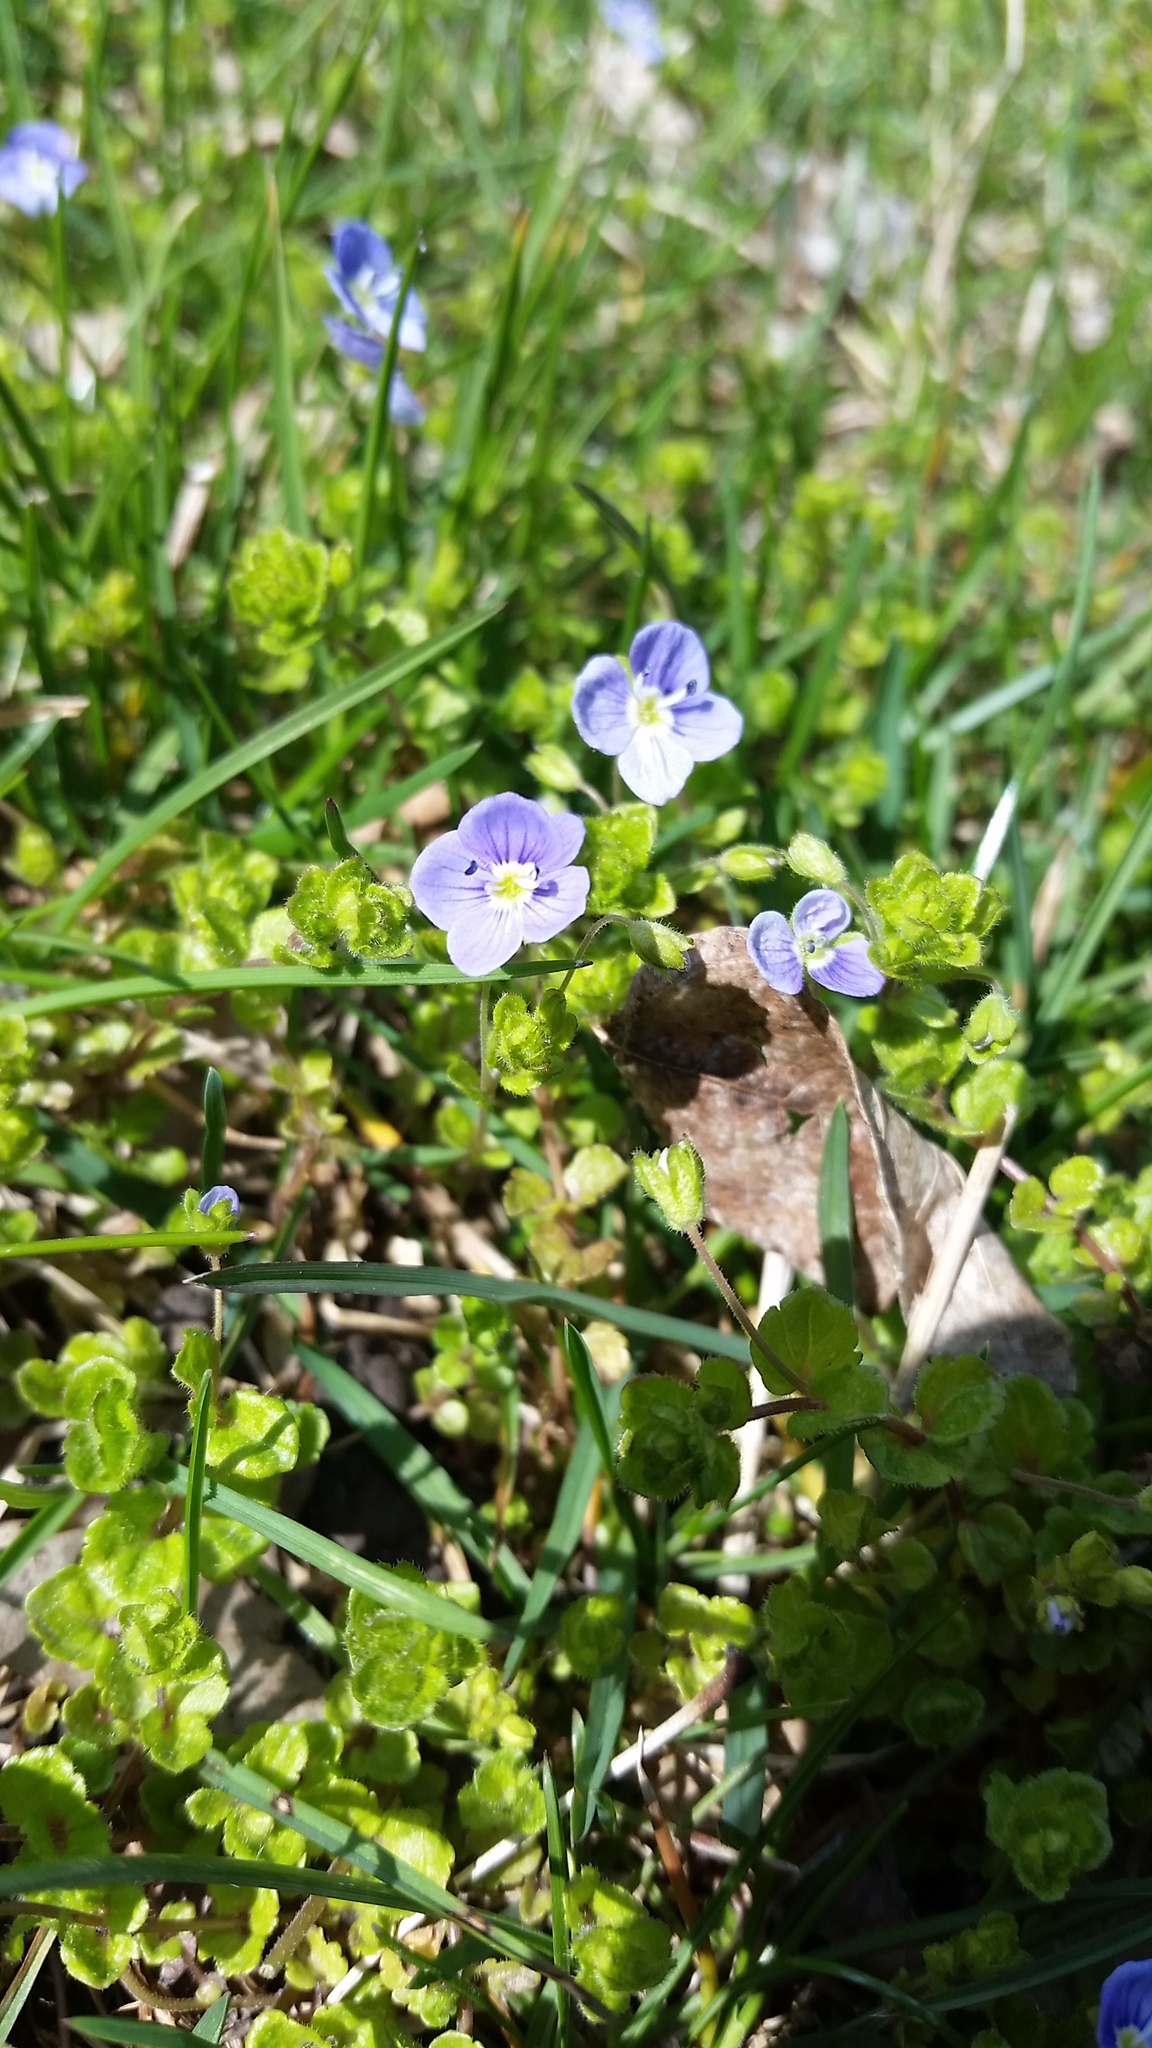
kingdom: Plantae
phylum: Tracheophyta
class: Magnoliopsida
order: Lamiales
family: Plantaginaceae
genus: Veronica
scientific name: Veronica filiformis
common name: Slender speedwell
